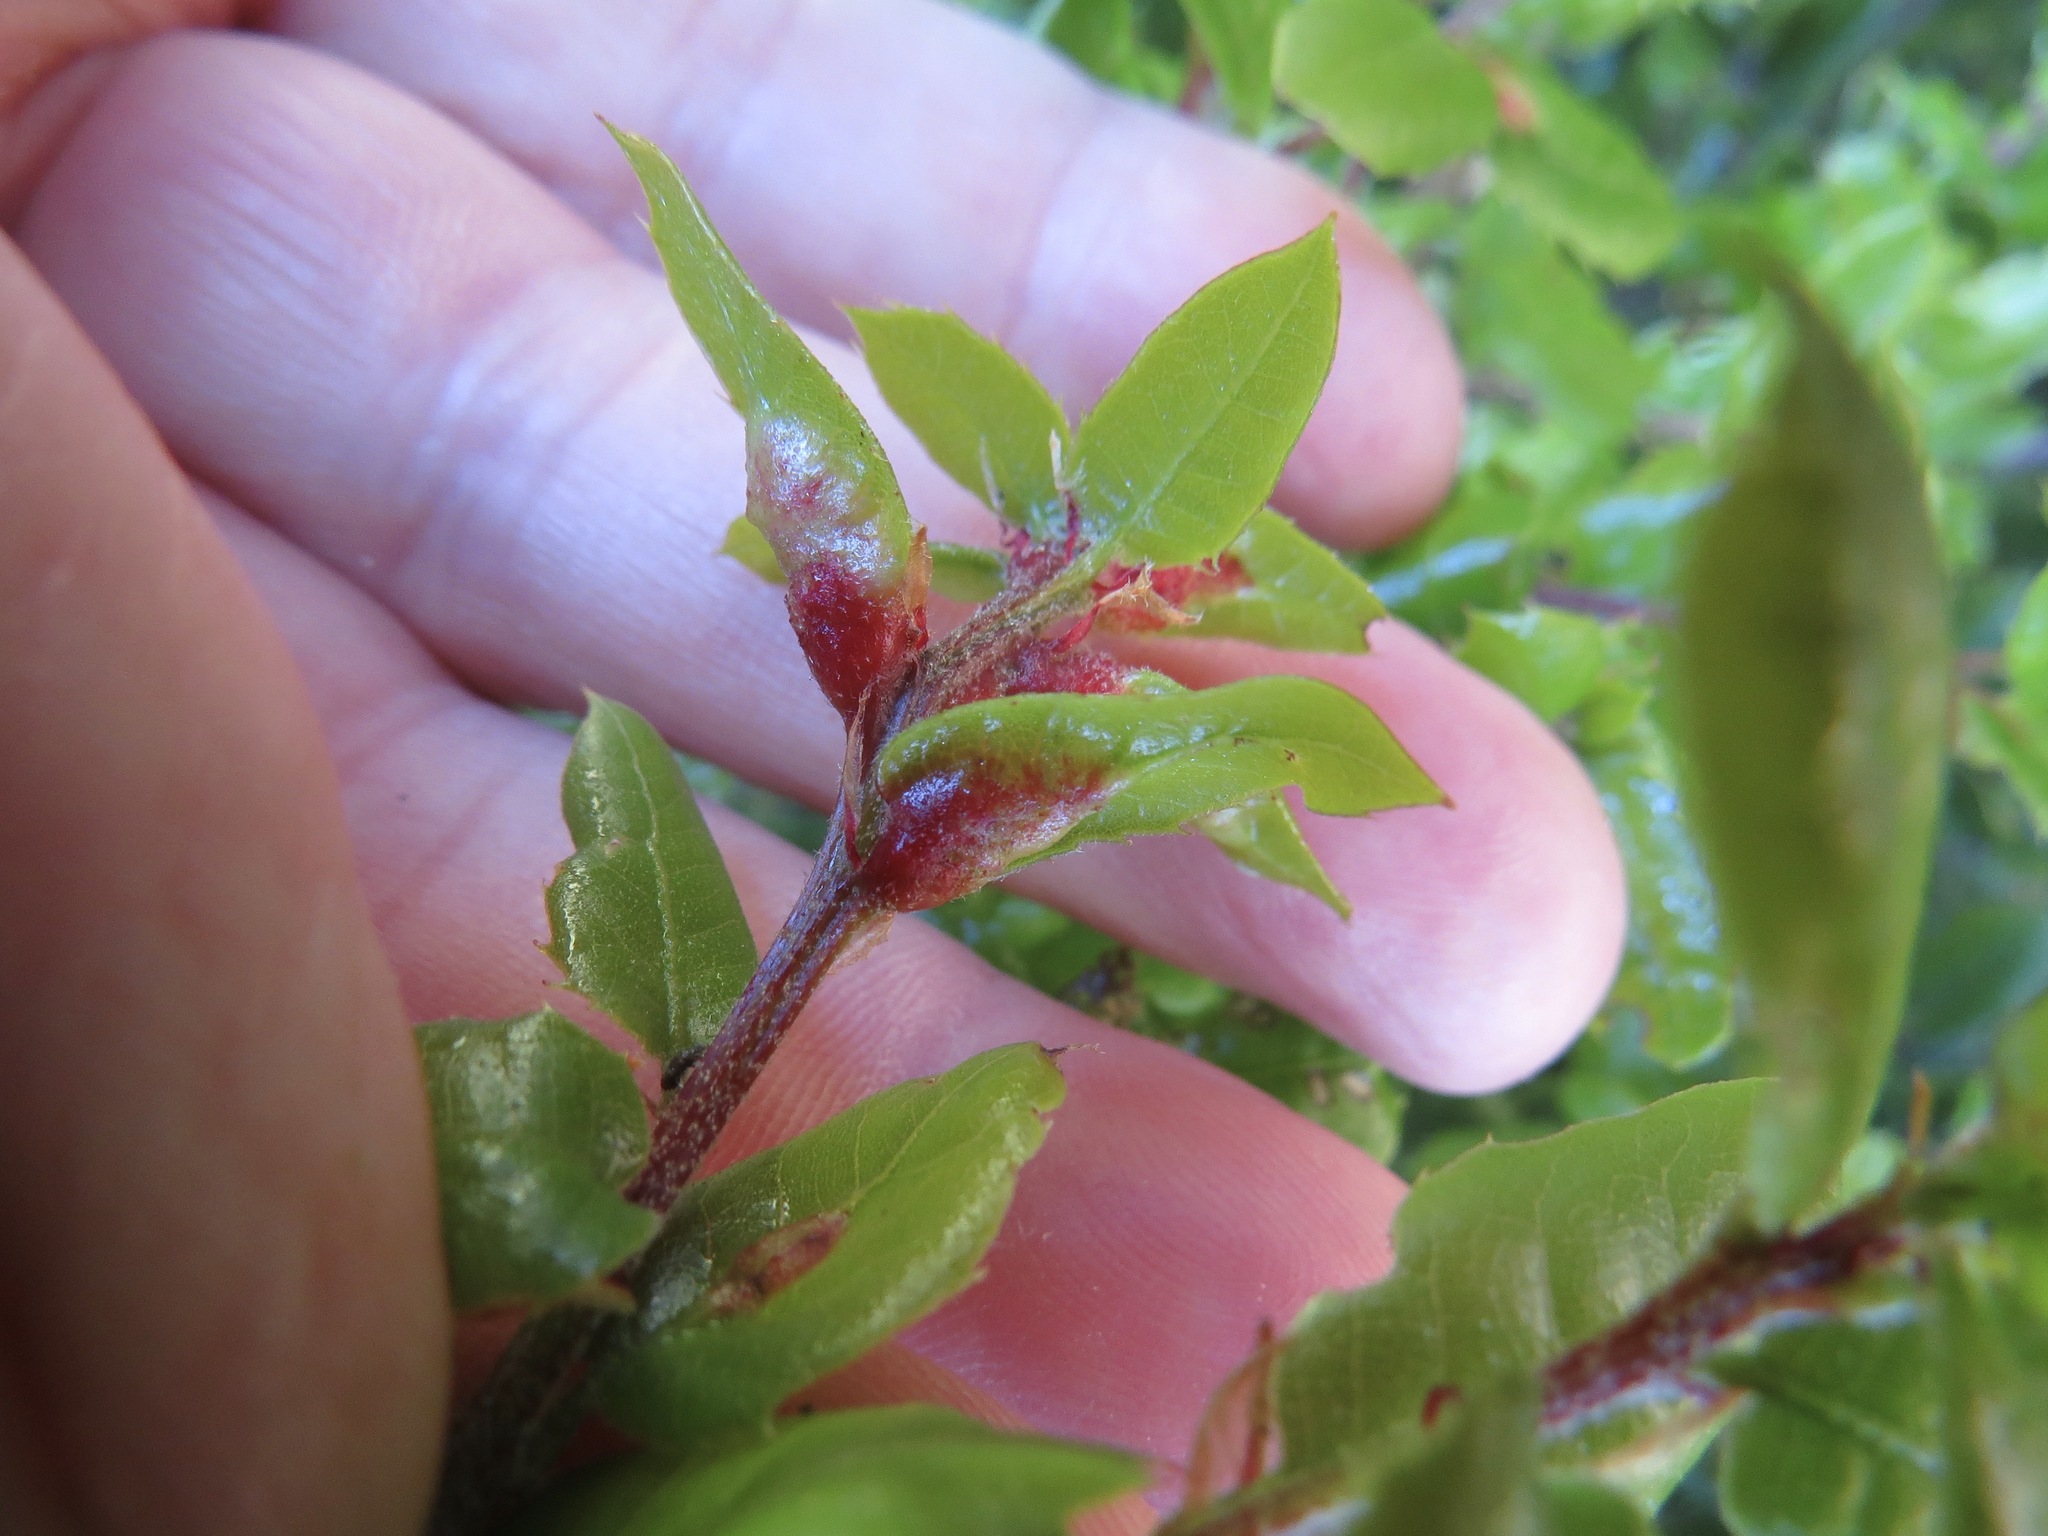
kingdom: Animalia
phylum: Arthropoda
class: Insecta
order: Hymenoptera
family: Cynipidae
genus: Melikaiella
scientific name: Melikaiella
